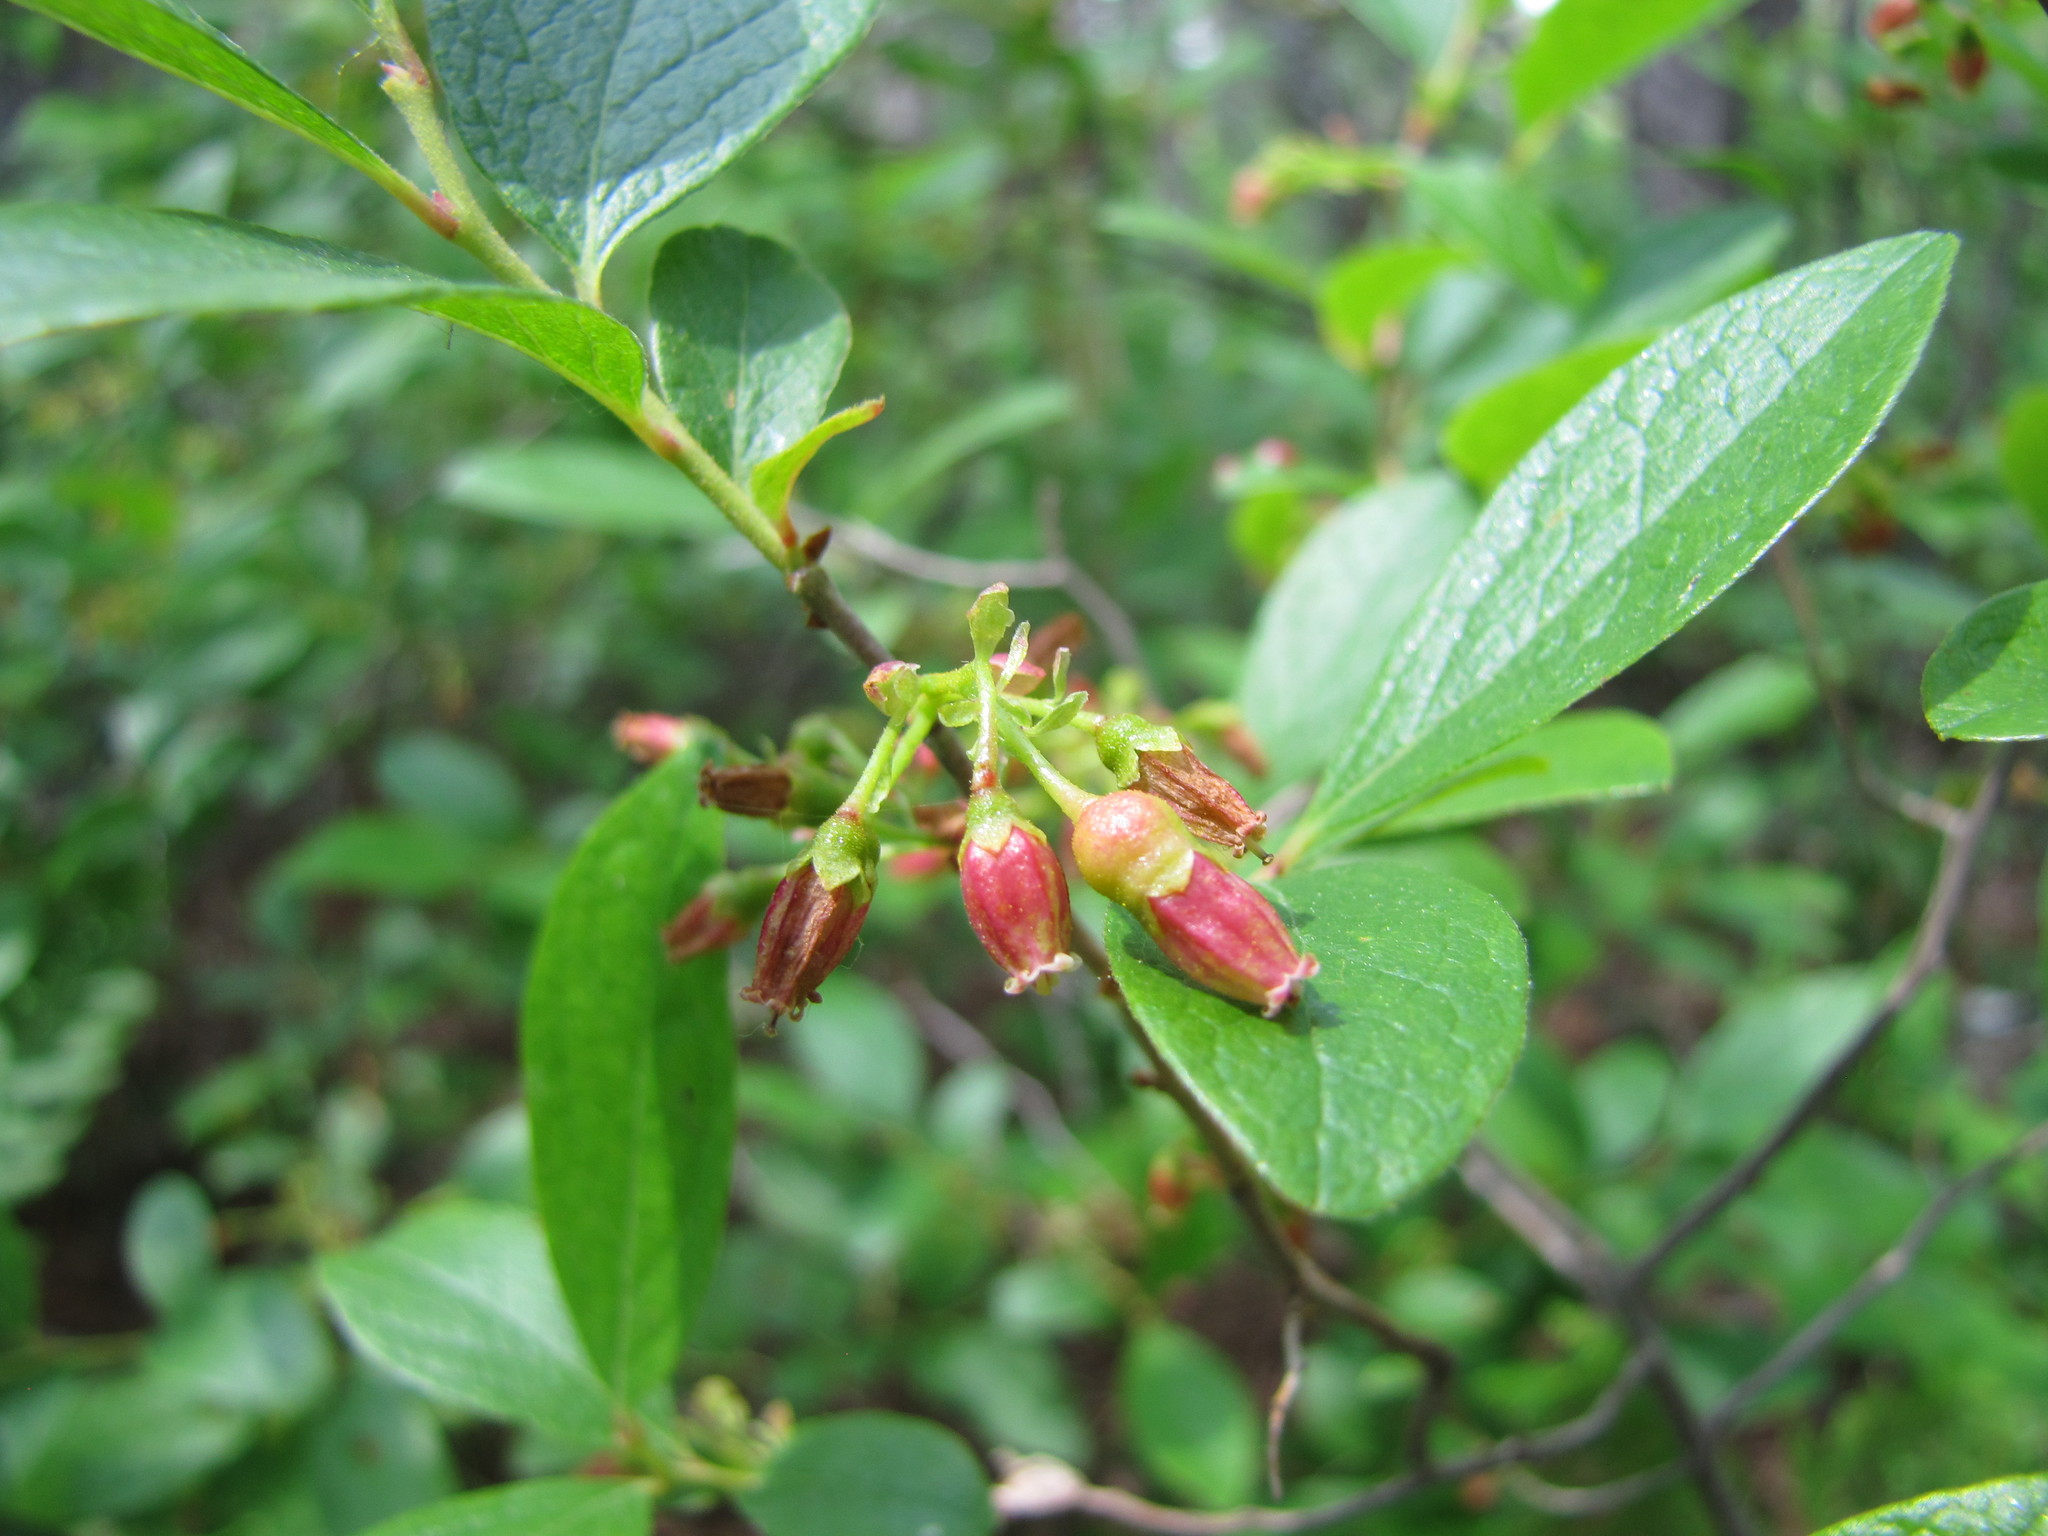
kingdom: Plantae
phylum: Tracheophyta
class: Magnoliopsida
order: Ericales
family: Ericaceae
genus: Gaylussacia
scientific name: Gaylussacia baccata
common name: Black huckleberry
